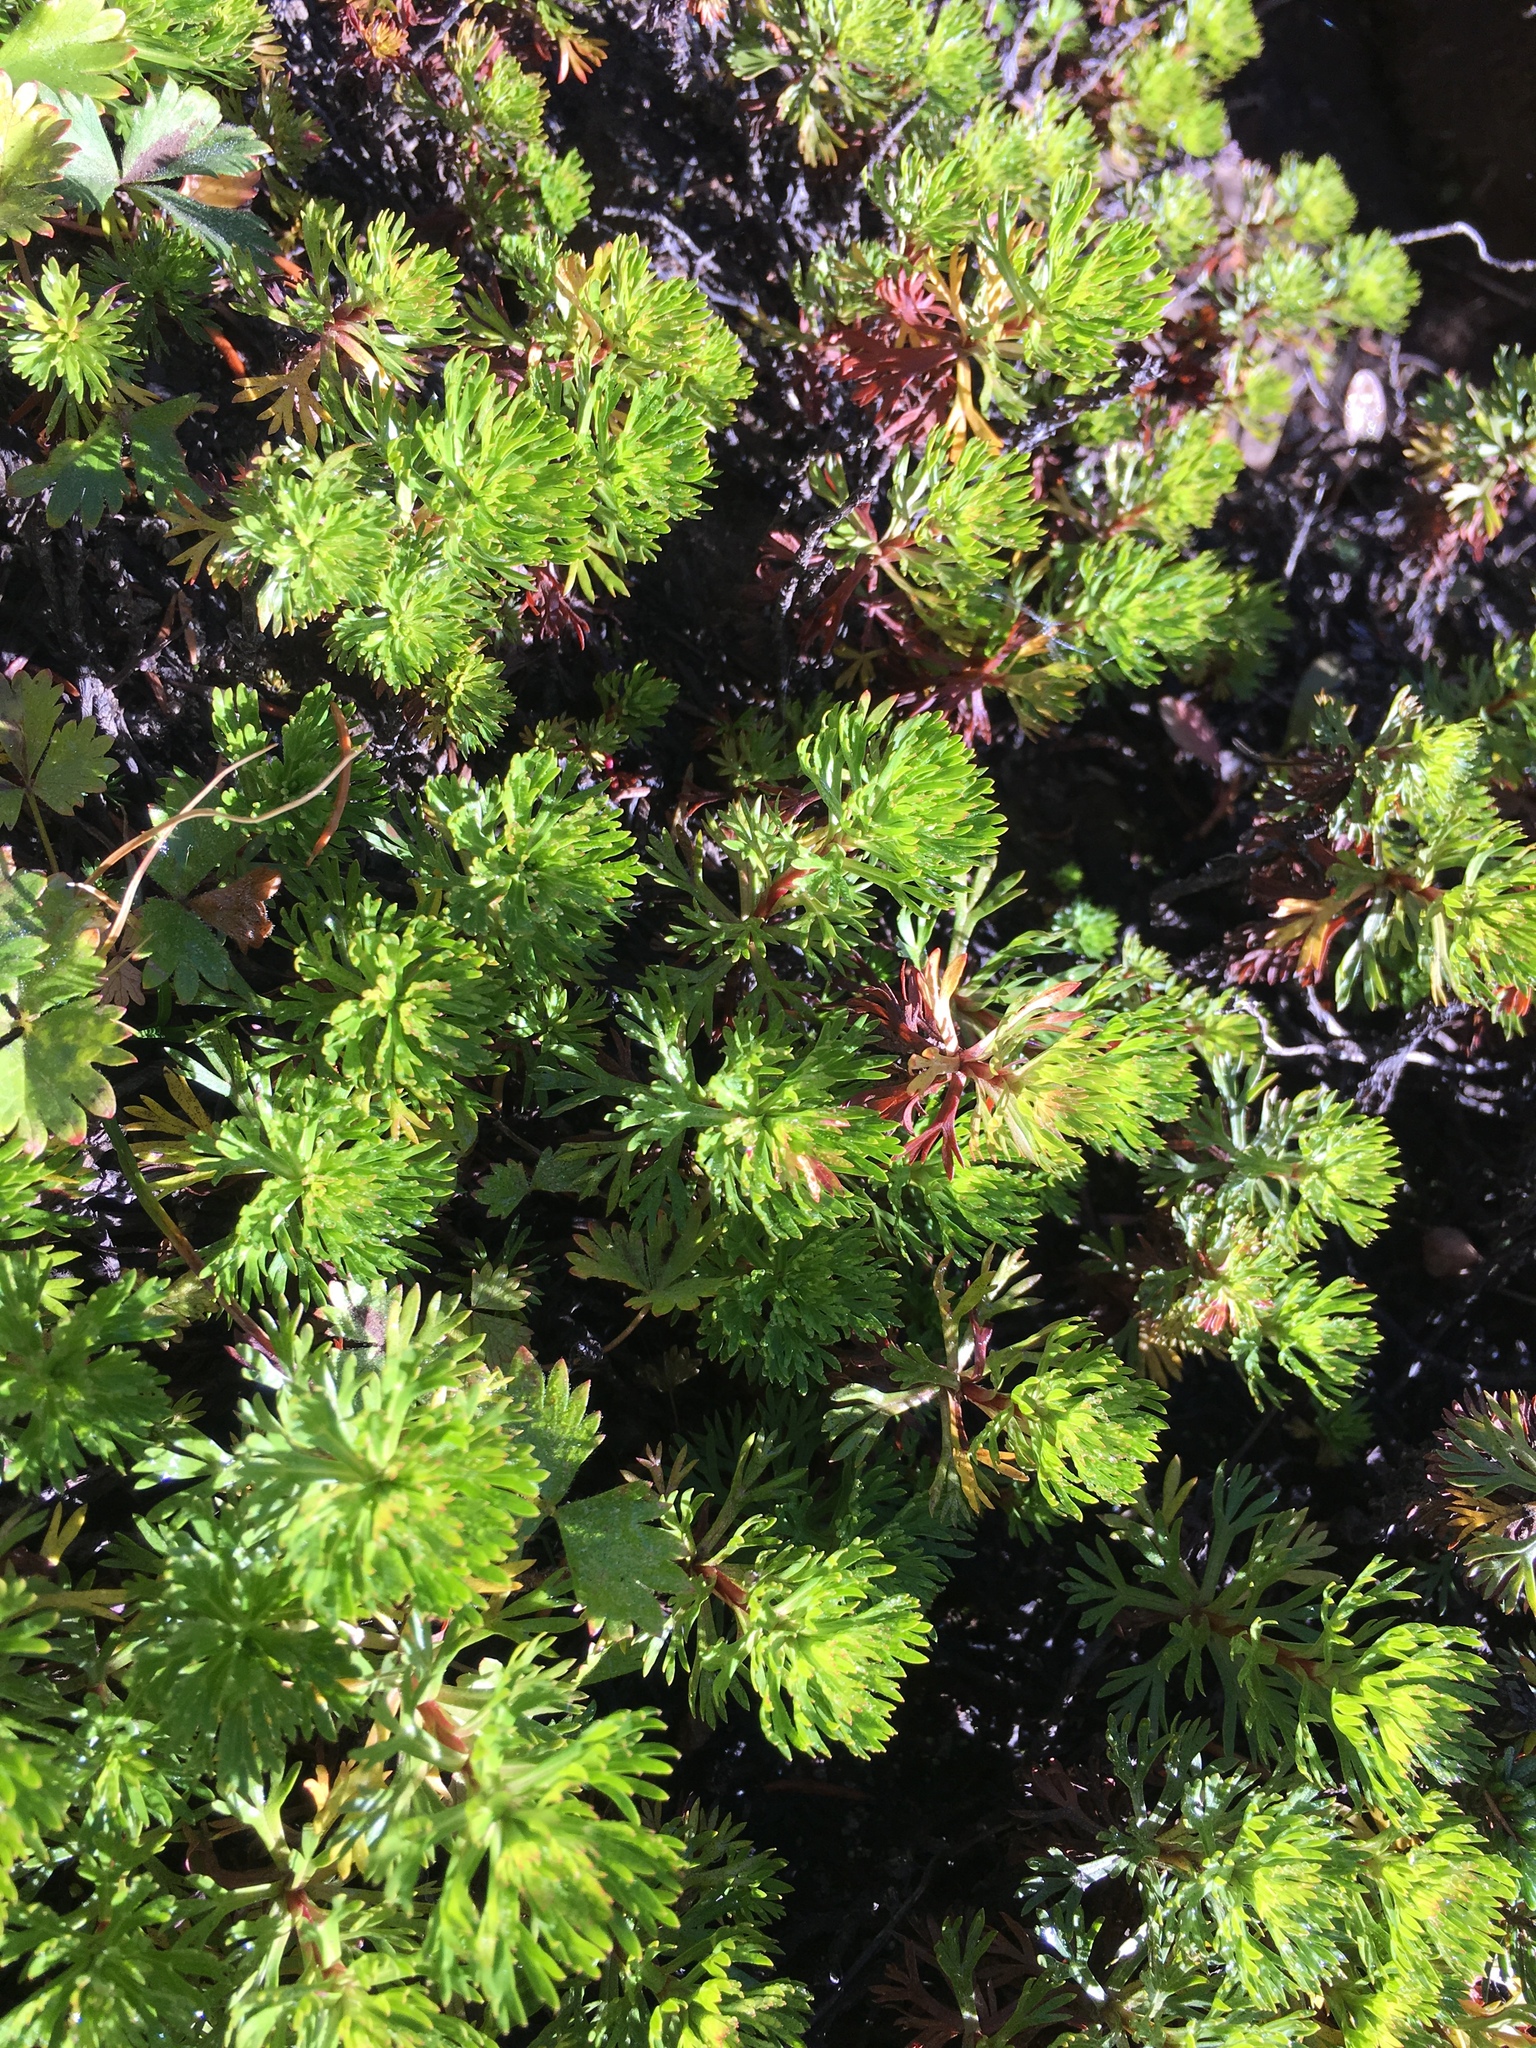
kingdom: Plantae
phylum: Tracheophyta
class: Magnoliopsida
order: Rosales
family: Rosaceae
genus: Luetkea
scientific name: Luetkea pectinata
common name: Partridgefoot
